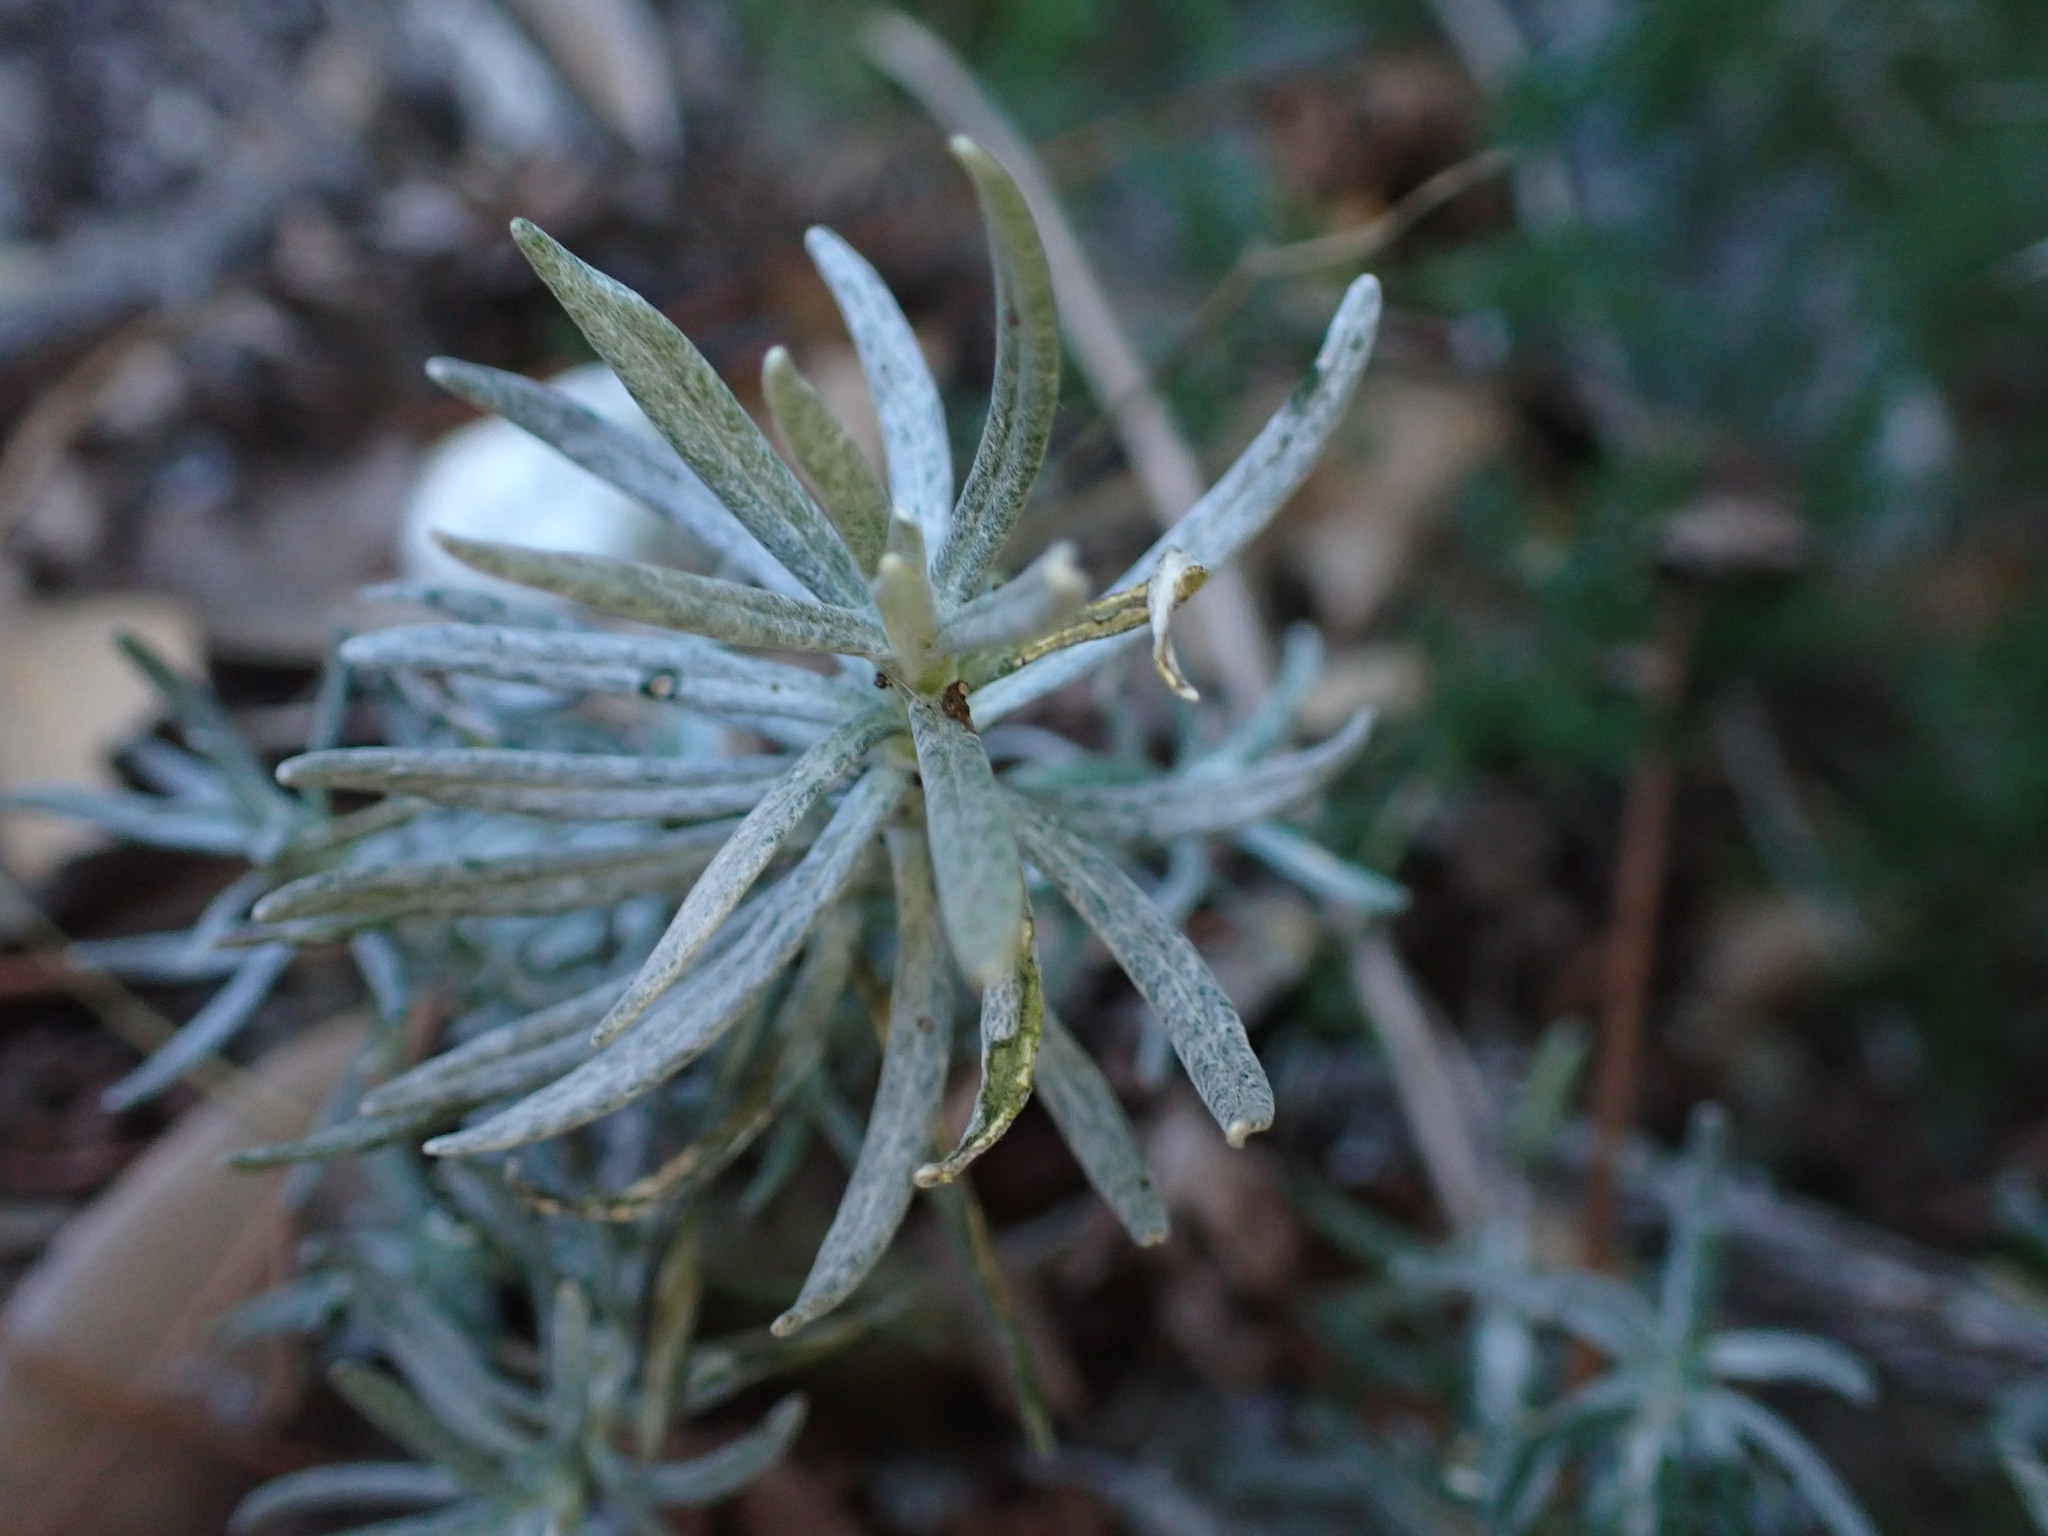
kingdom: Plantae
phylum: Tracheophyta
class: Magnoliopsida
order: Asterales
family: Asteraceae
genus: Helichrysum
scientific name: Helichrysum stoechas
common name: Goldilocks
